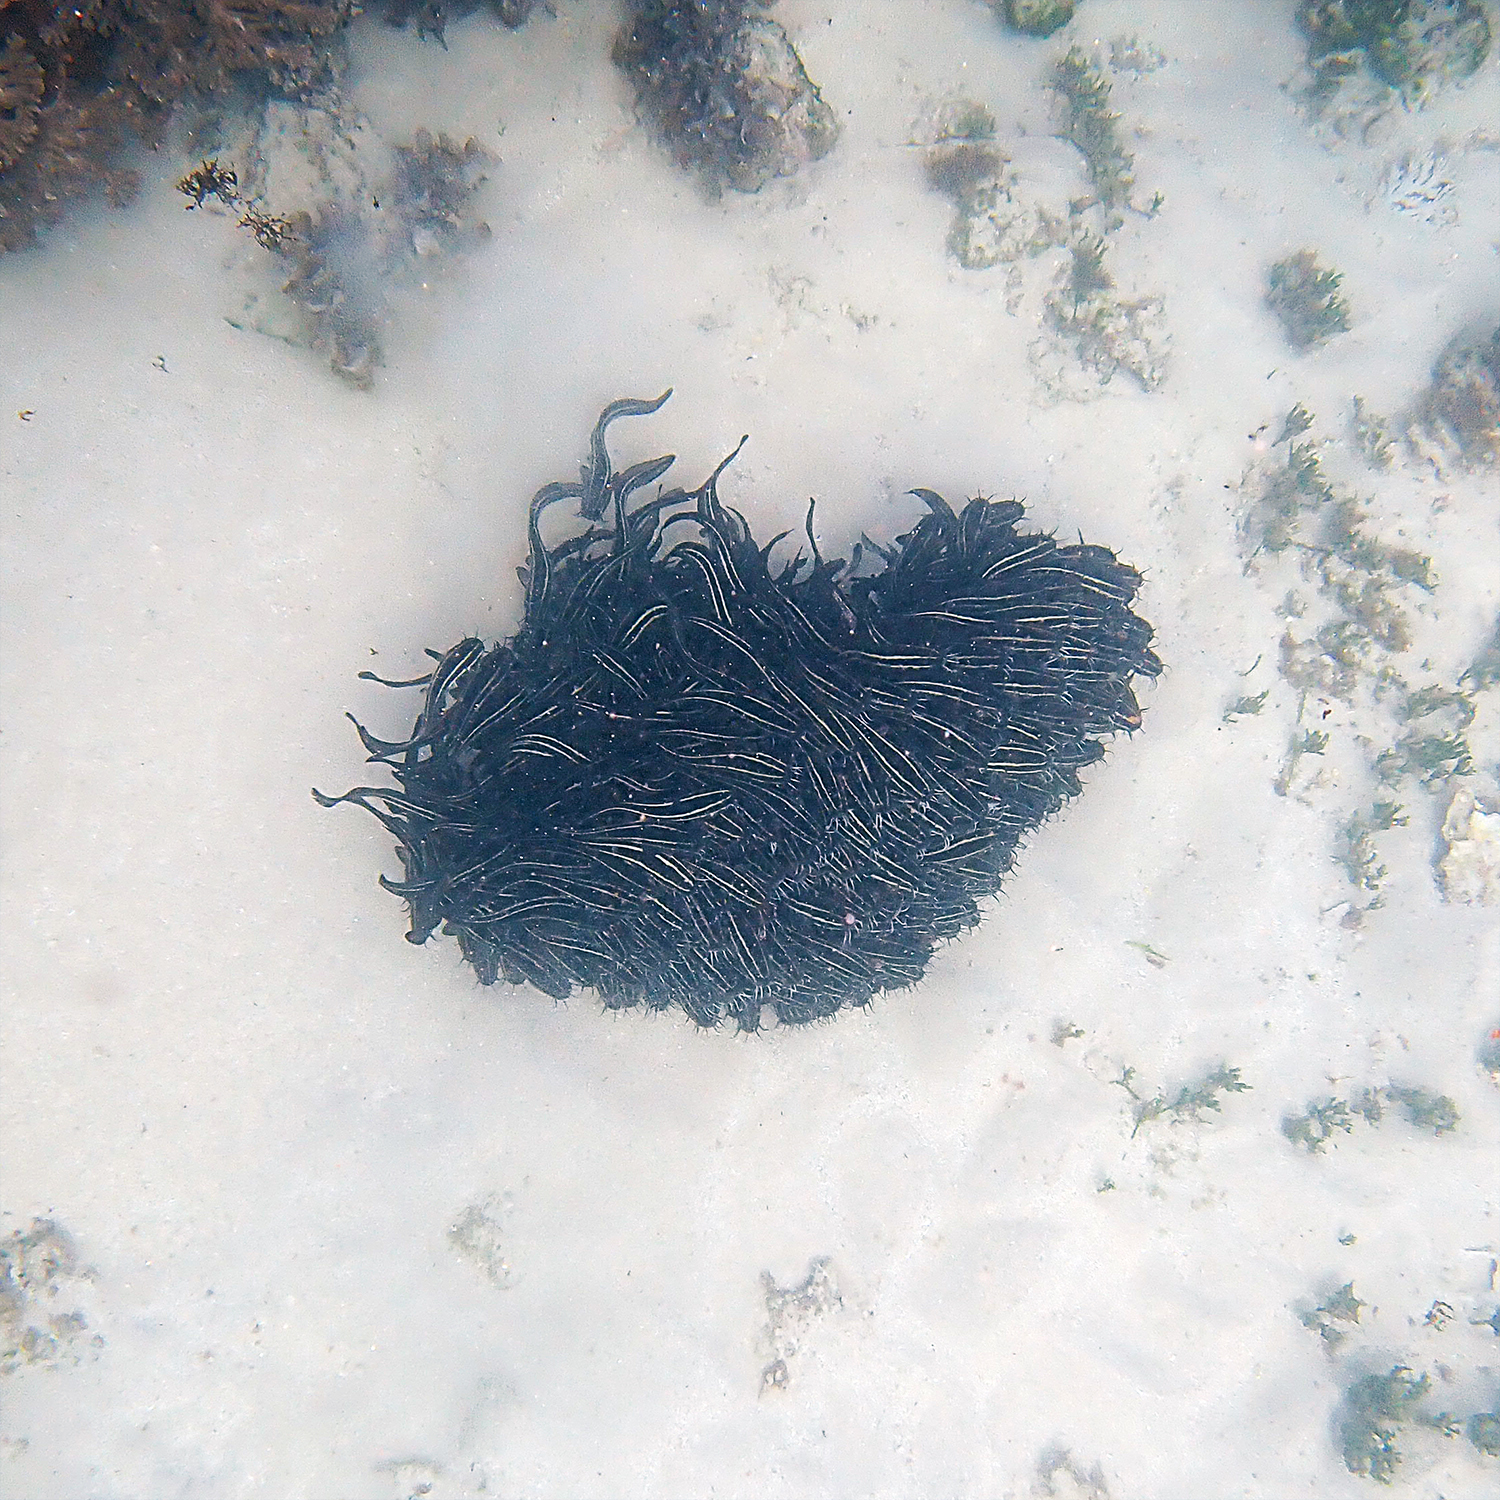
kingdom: Animalia
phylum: Chordata
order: Siluriformes
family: Plotosidae
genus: Plotosus
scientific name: Plotosus lineatus
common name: Striped eel catfish
